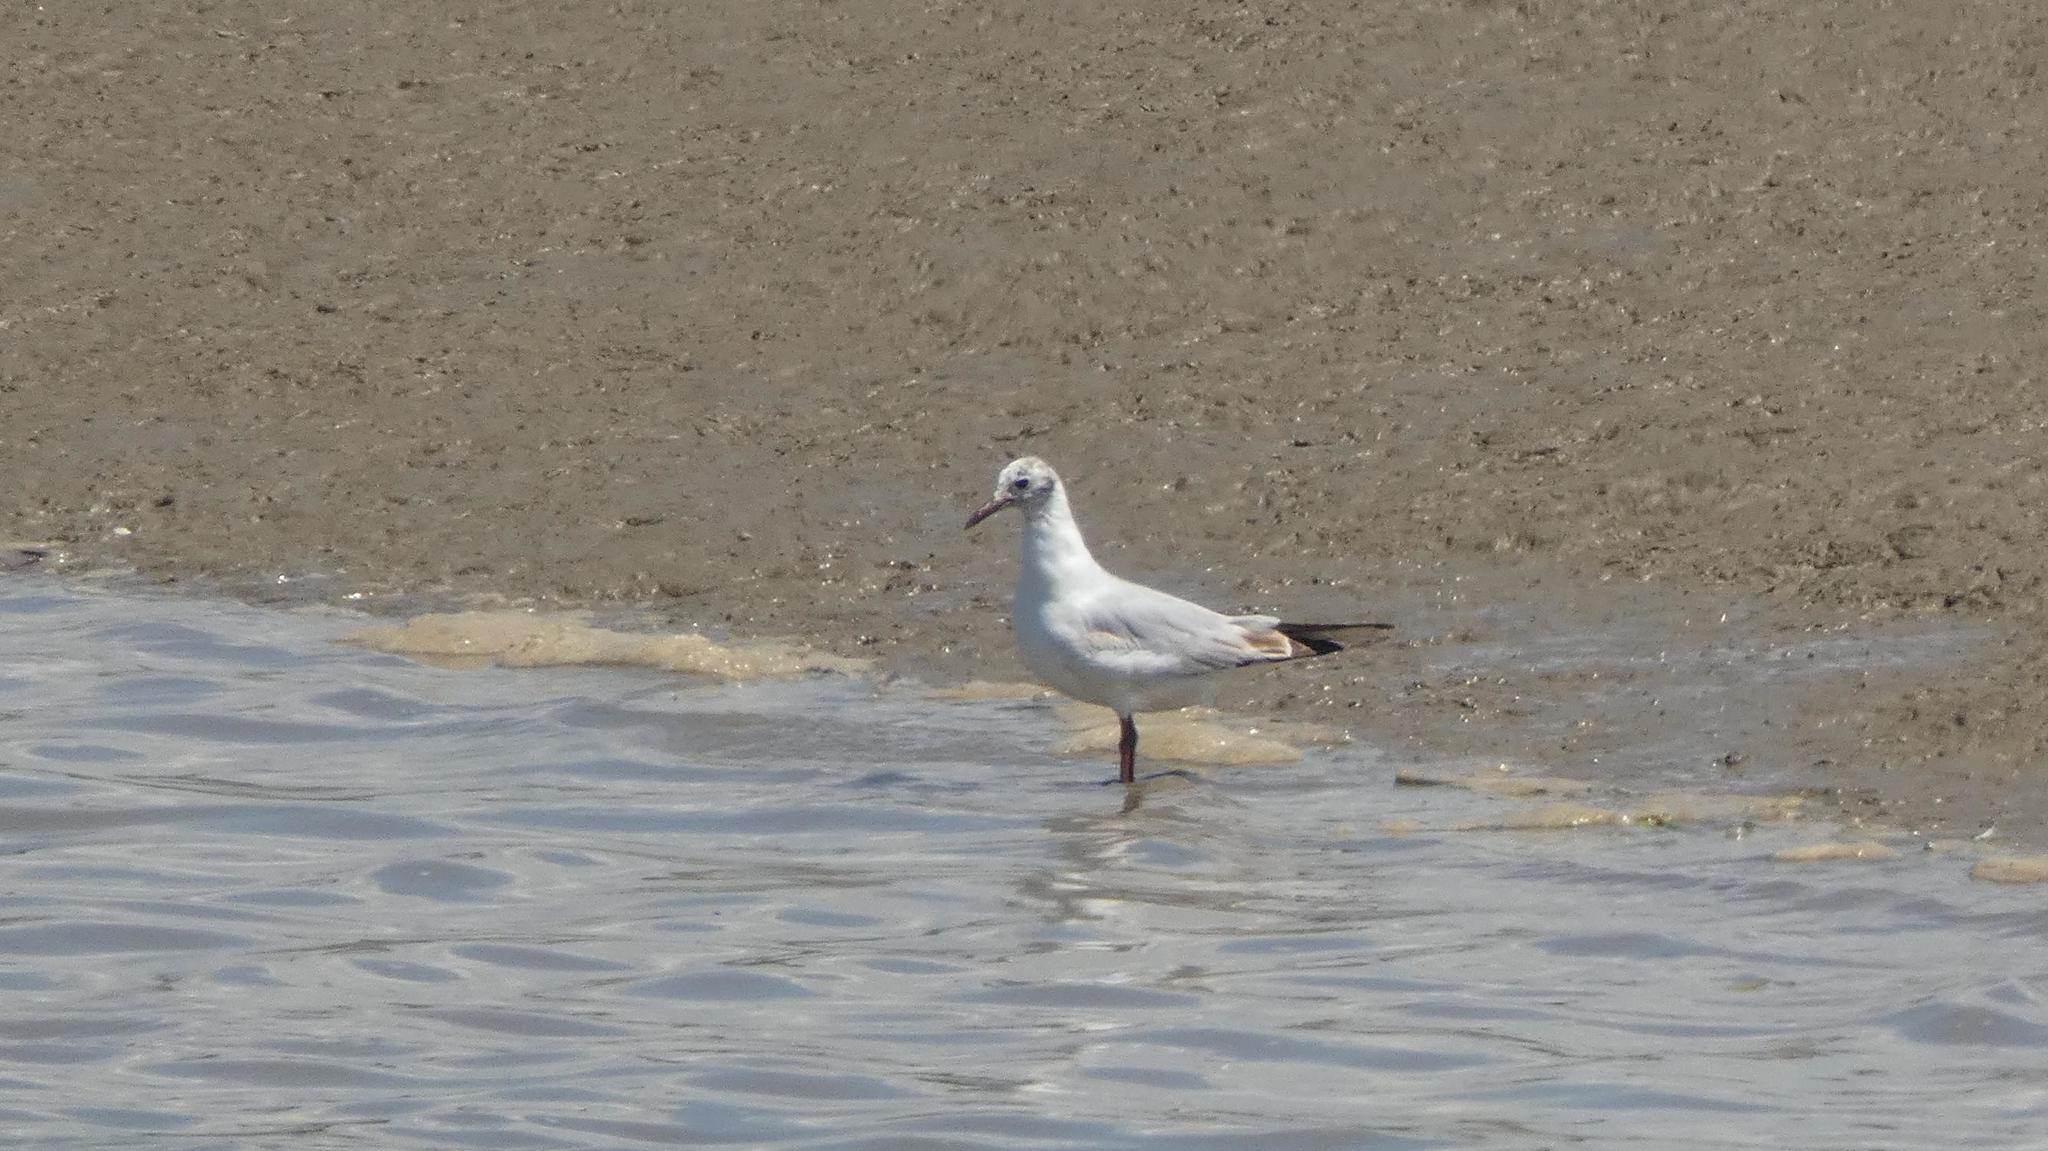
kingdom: Animalia
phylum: Chordata
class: Aves
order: Charadriiformes
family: Laridae
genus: Chroicocephalus
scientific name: Chroicocephalus ridibundus
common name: Black-headed gull
